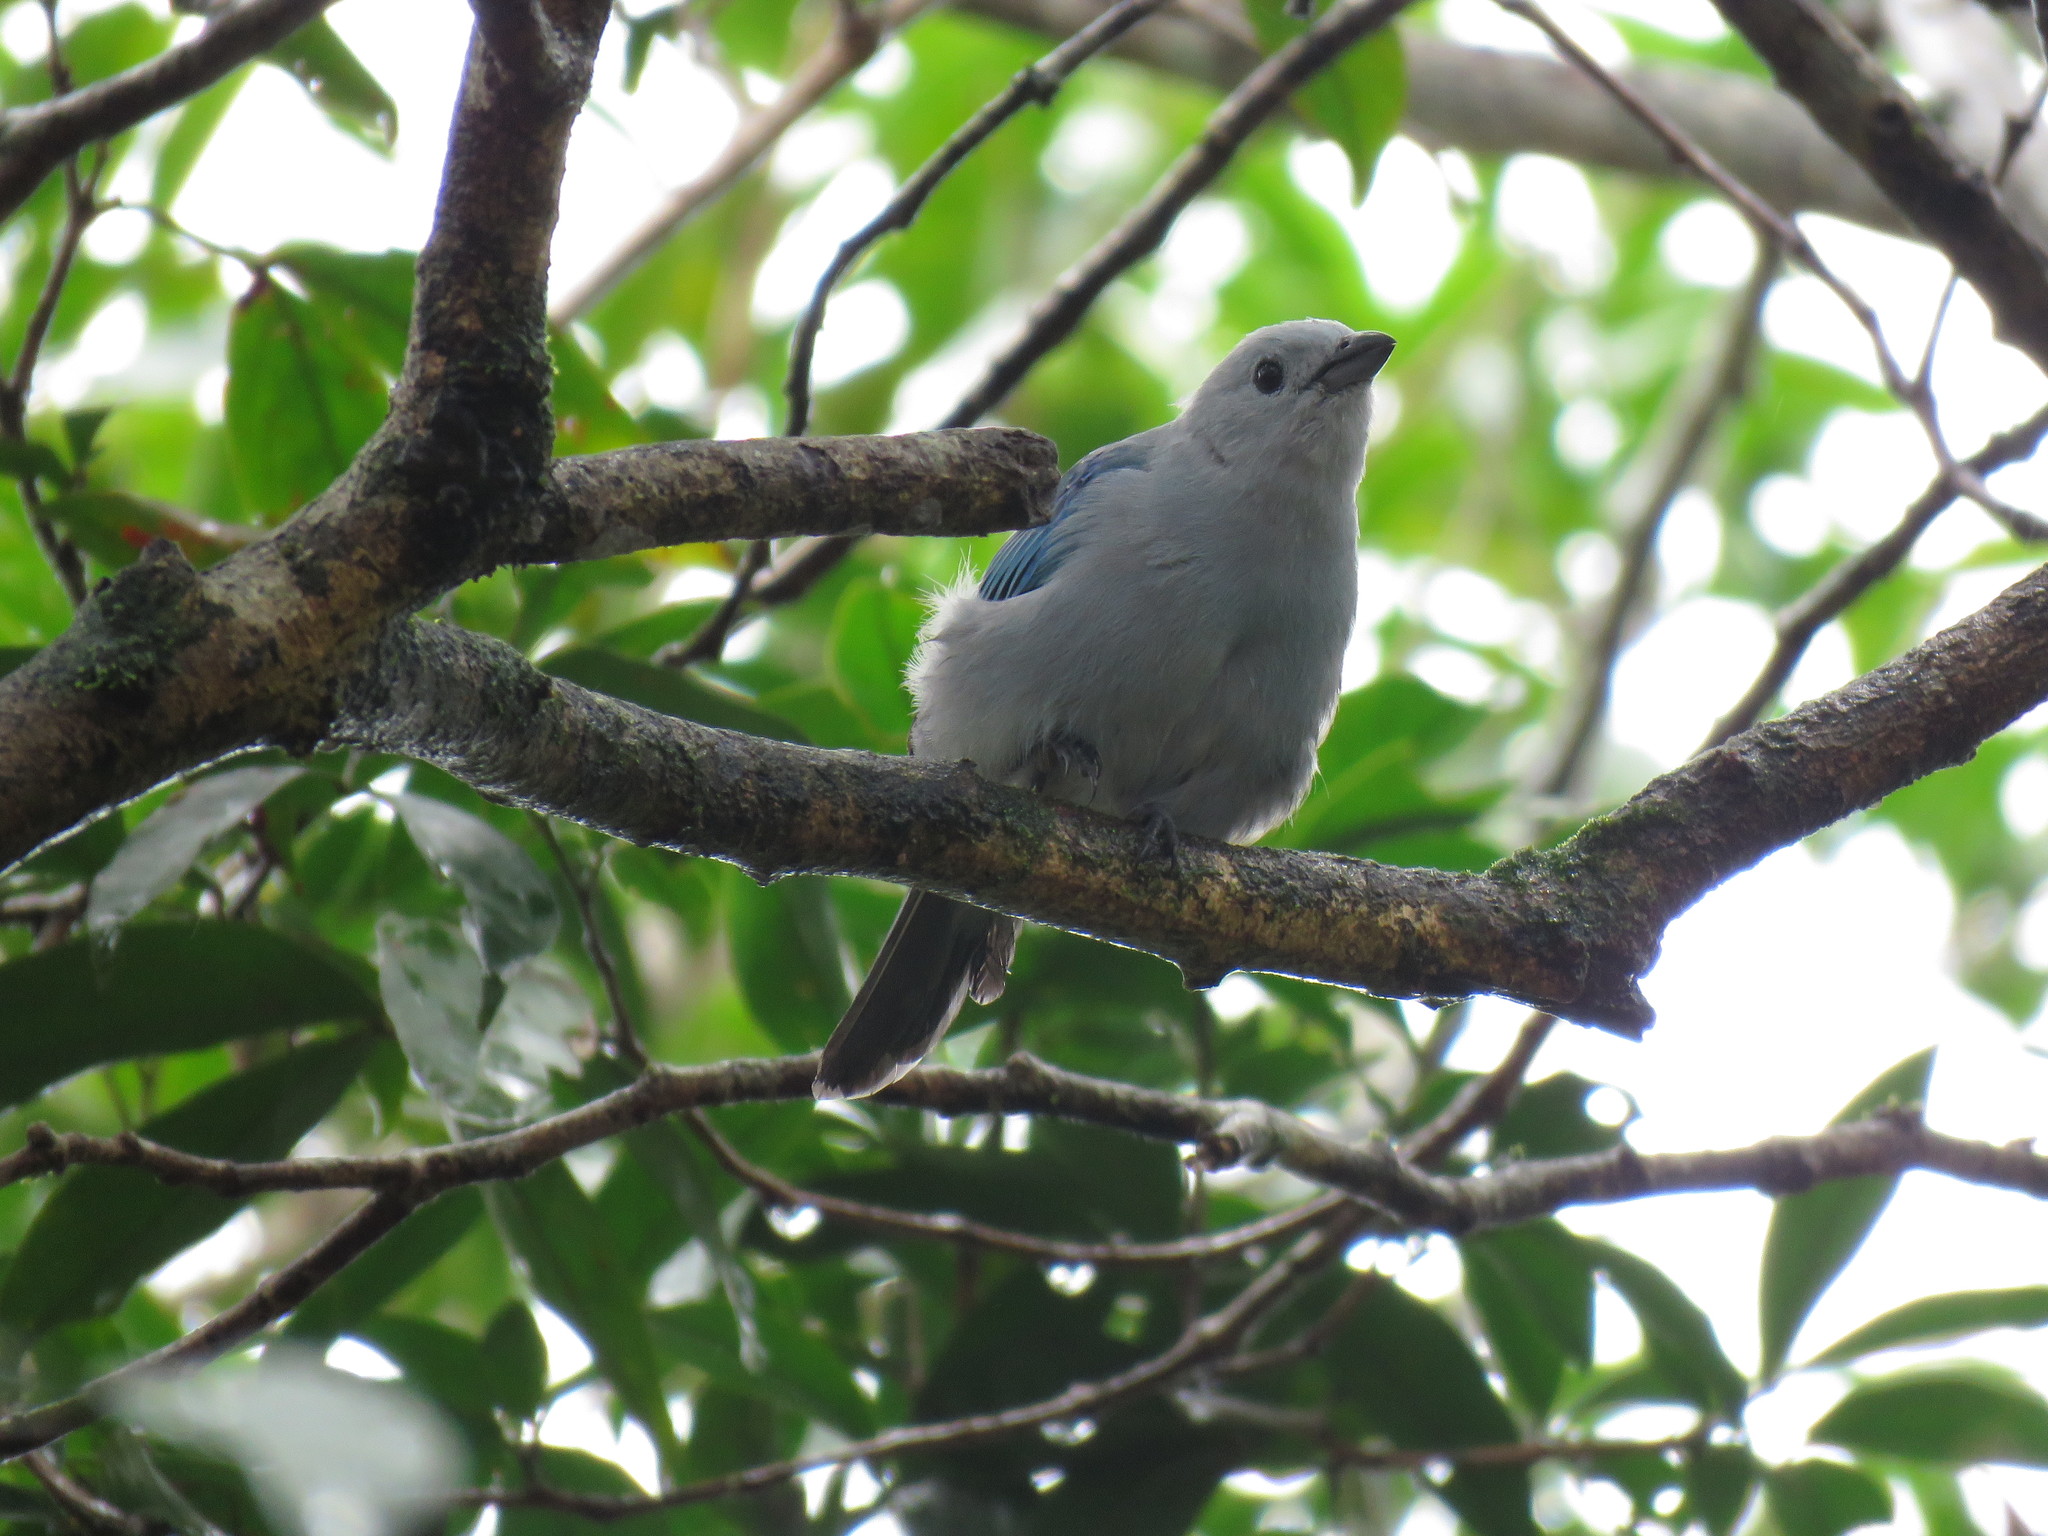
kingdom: Animalia
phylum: Chordata
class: Aves
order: Passeriformes
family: Thraupidae
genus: Thraupis
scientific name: Thraupis episcopus
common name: Blue-grey tanager
